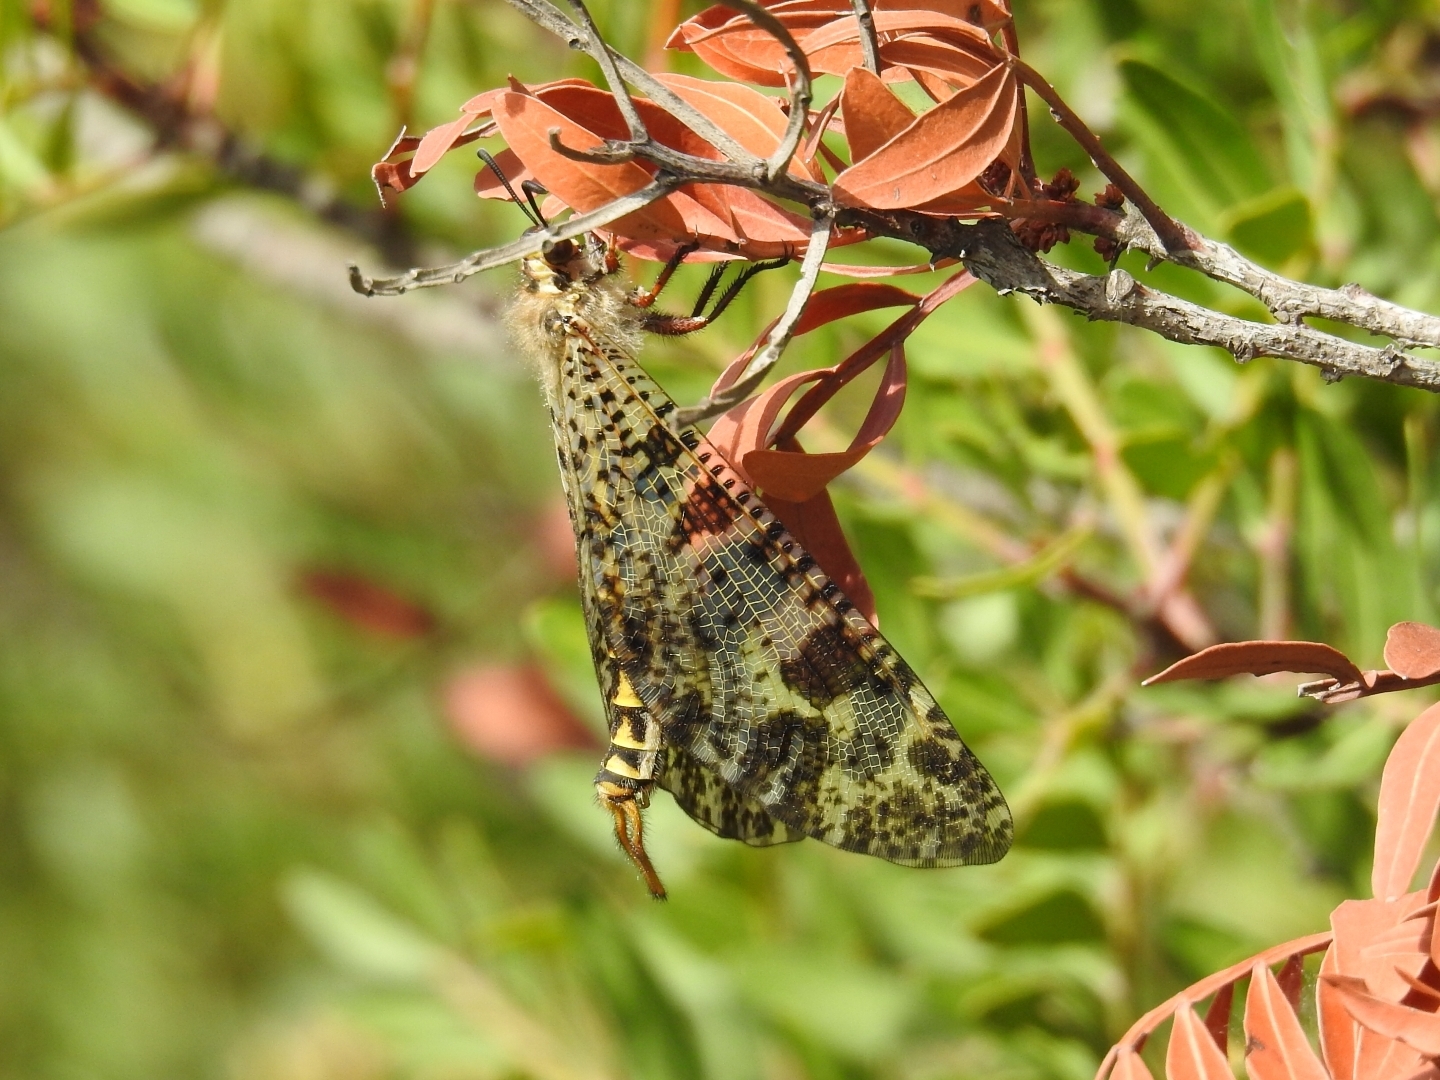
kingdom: Animalia
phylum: Arthropoda
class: Insecta
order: Neuroptera
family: Myrmeleontidae
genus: Palpares
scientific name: Palpares libelluloides
